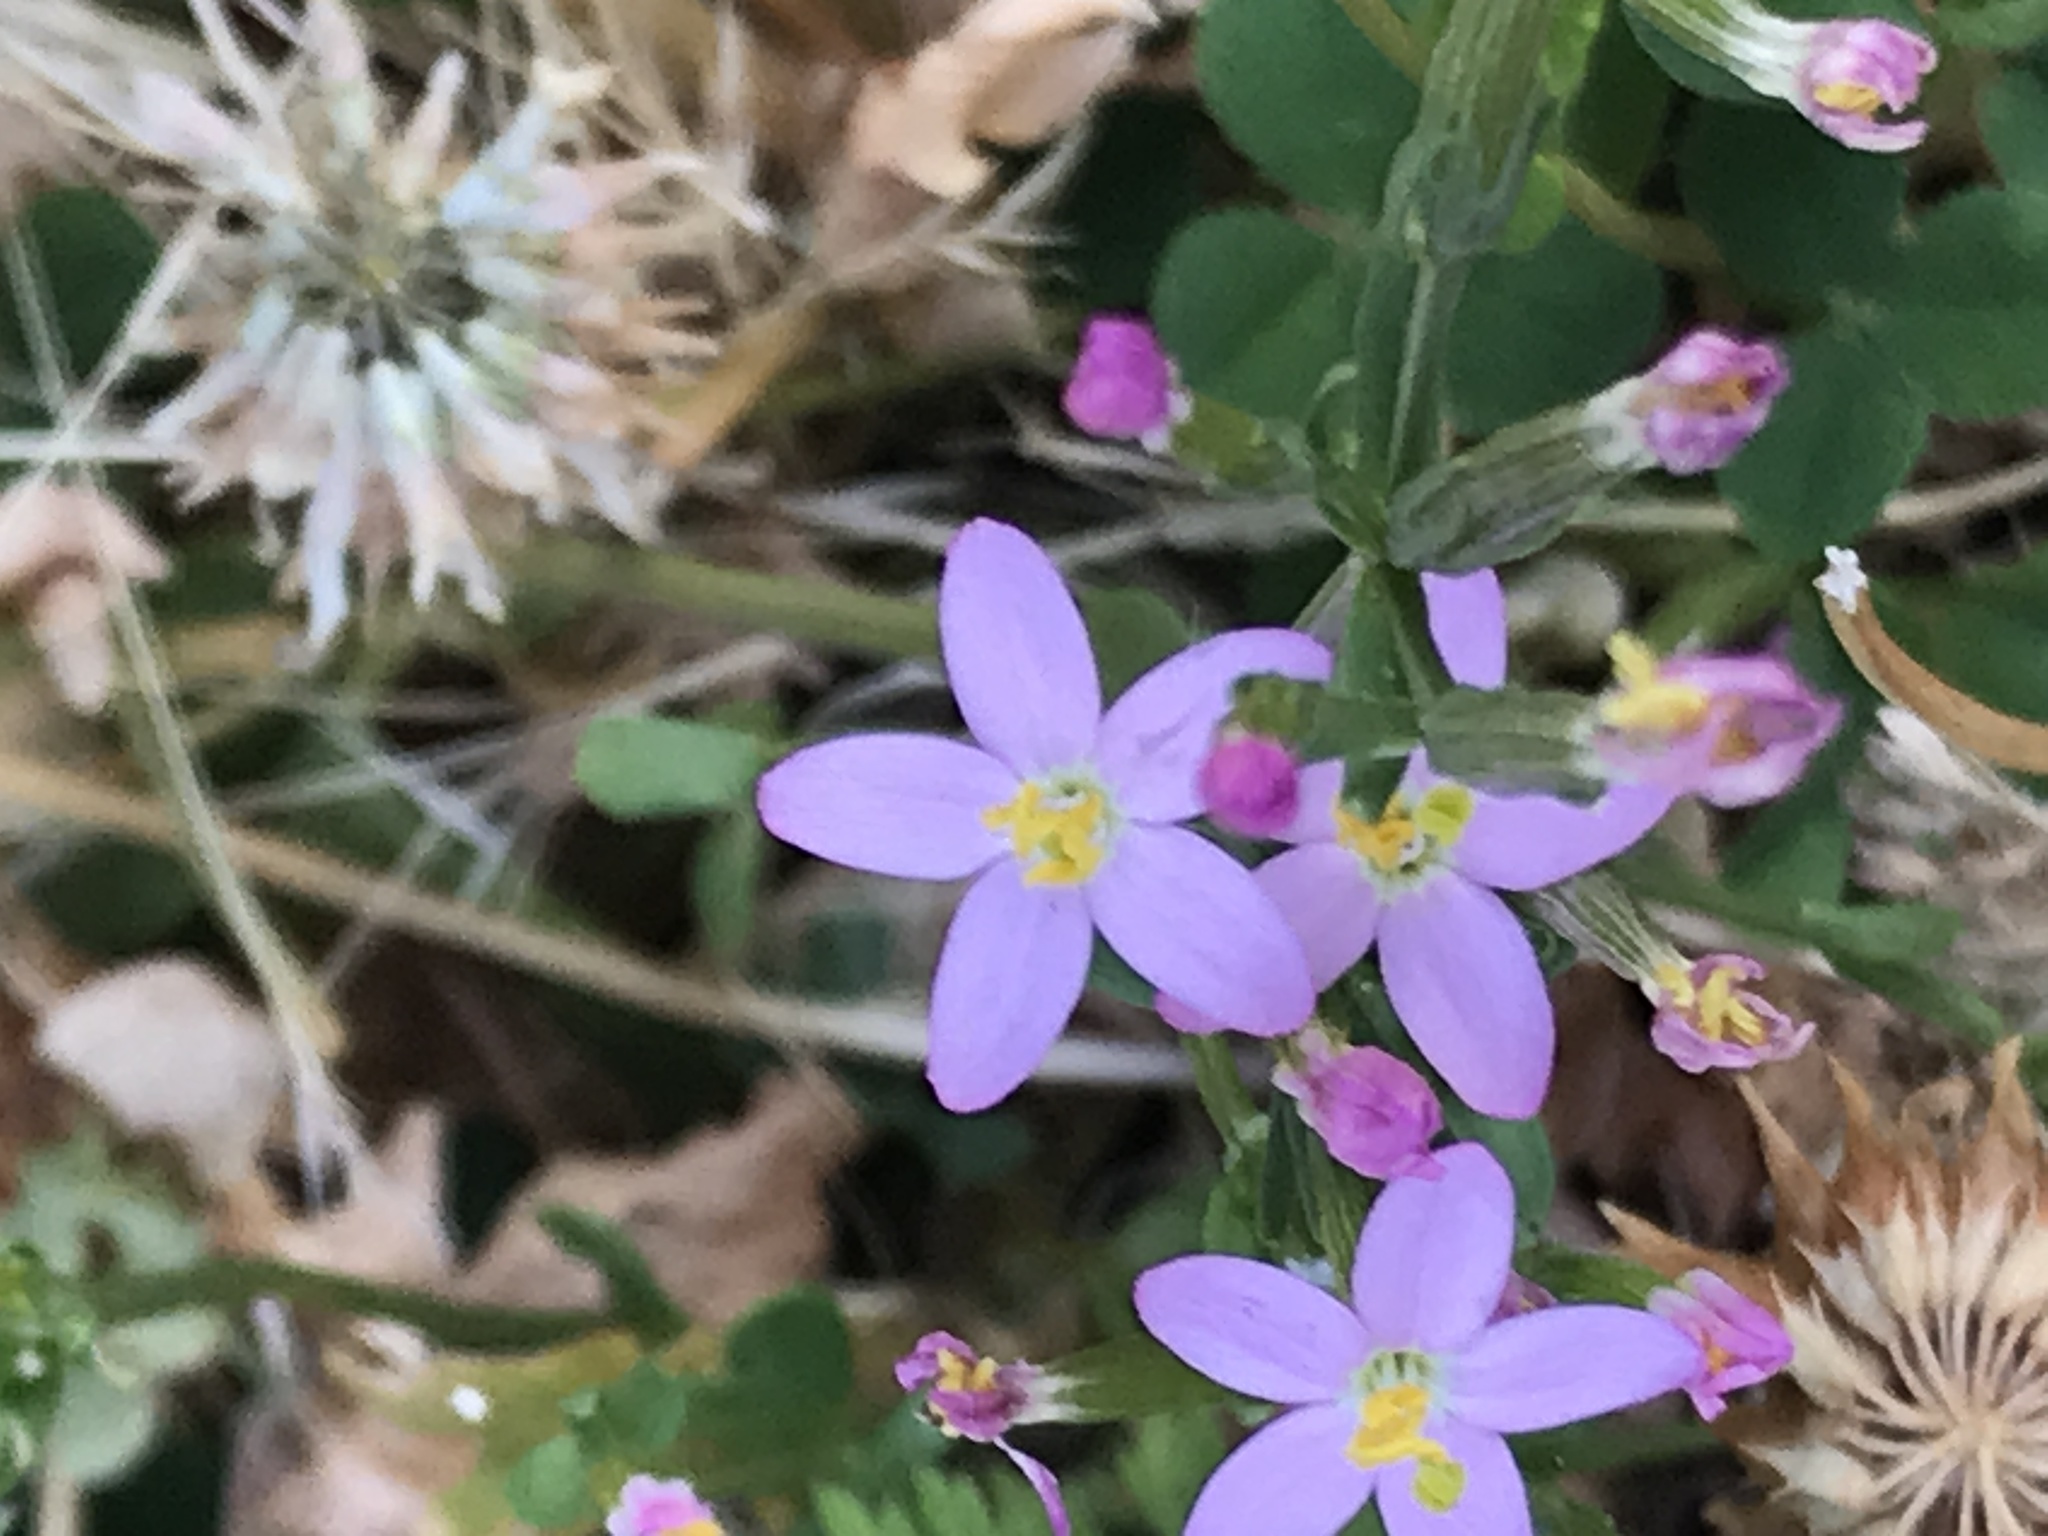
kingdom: Plantae
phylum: Tracheophyta
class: Magnoliopsida
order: Gentianales
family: Gentianaceae
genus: Centaurium
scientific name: Centaurium erythraea
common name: Common centaury
